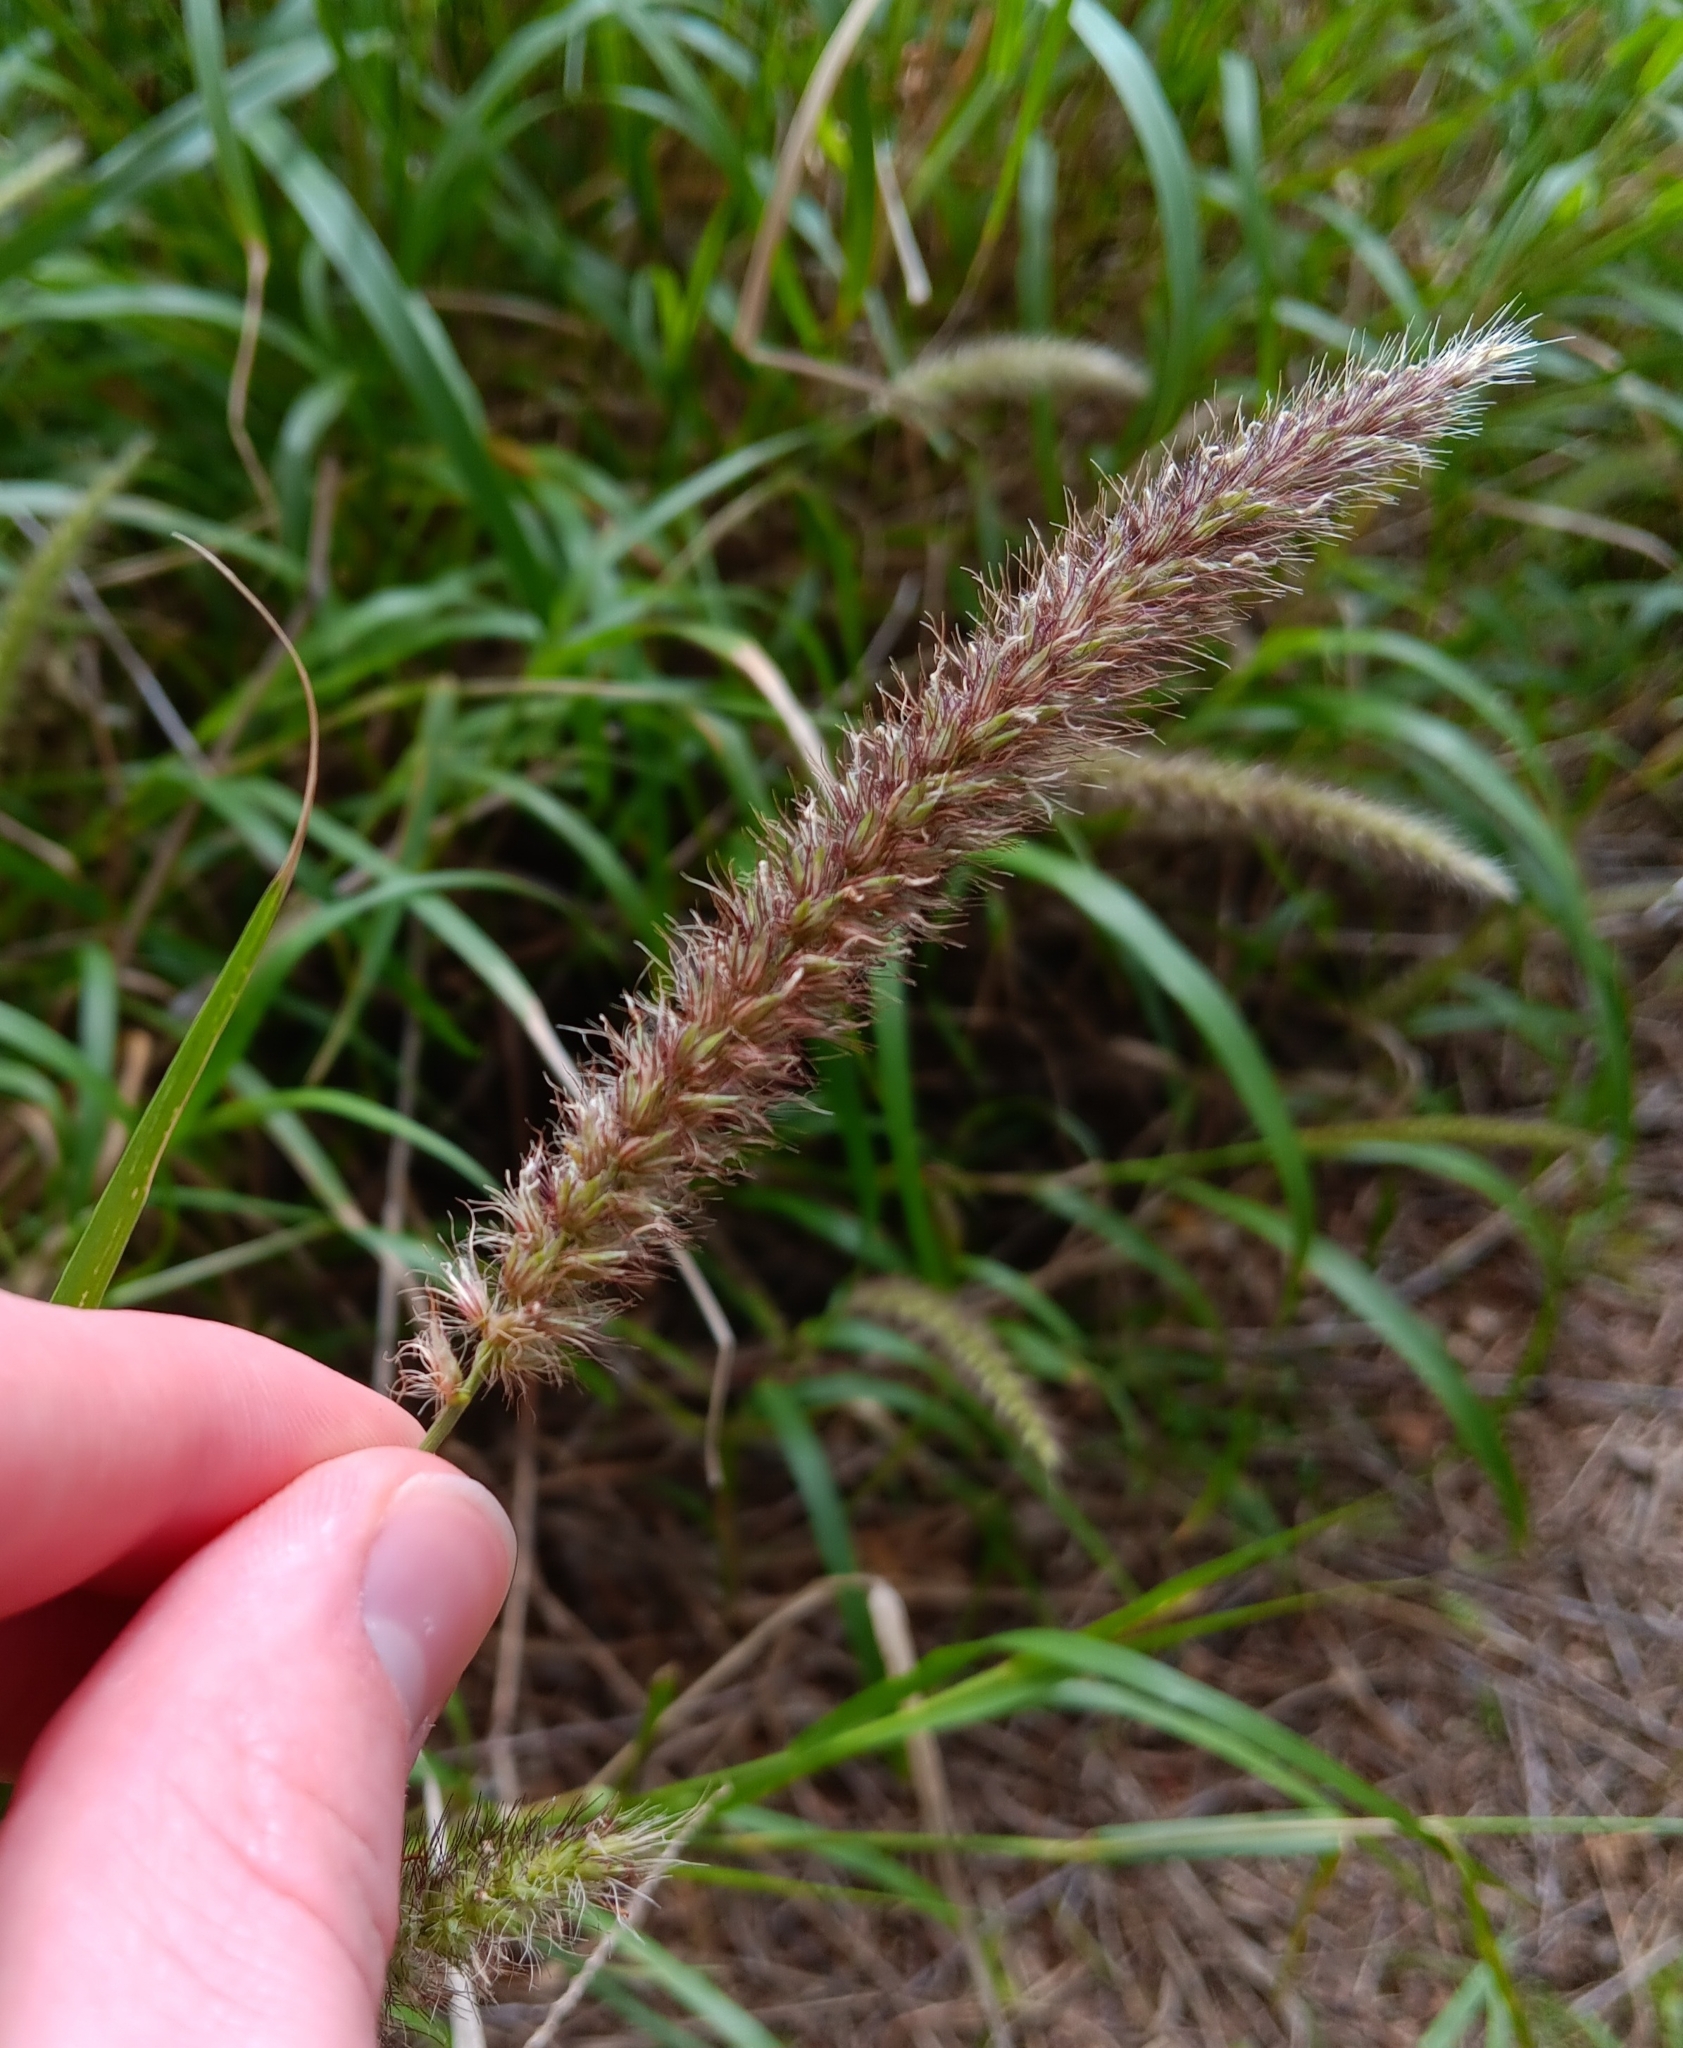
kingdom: Plantae
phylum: Tracheophyta
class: Liliopsida
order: Poales
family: Poaceae
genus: Cenchrus
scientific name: Cenchrus ciliaris
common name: Buffelgrass
